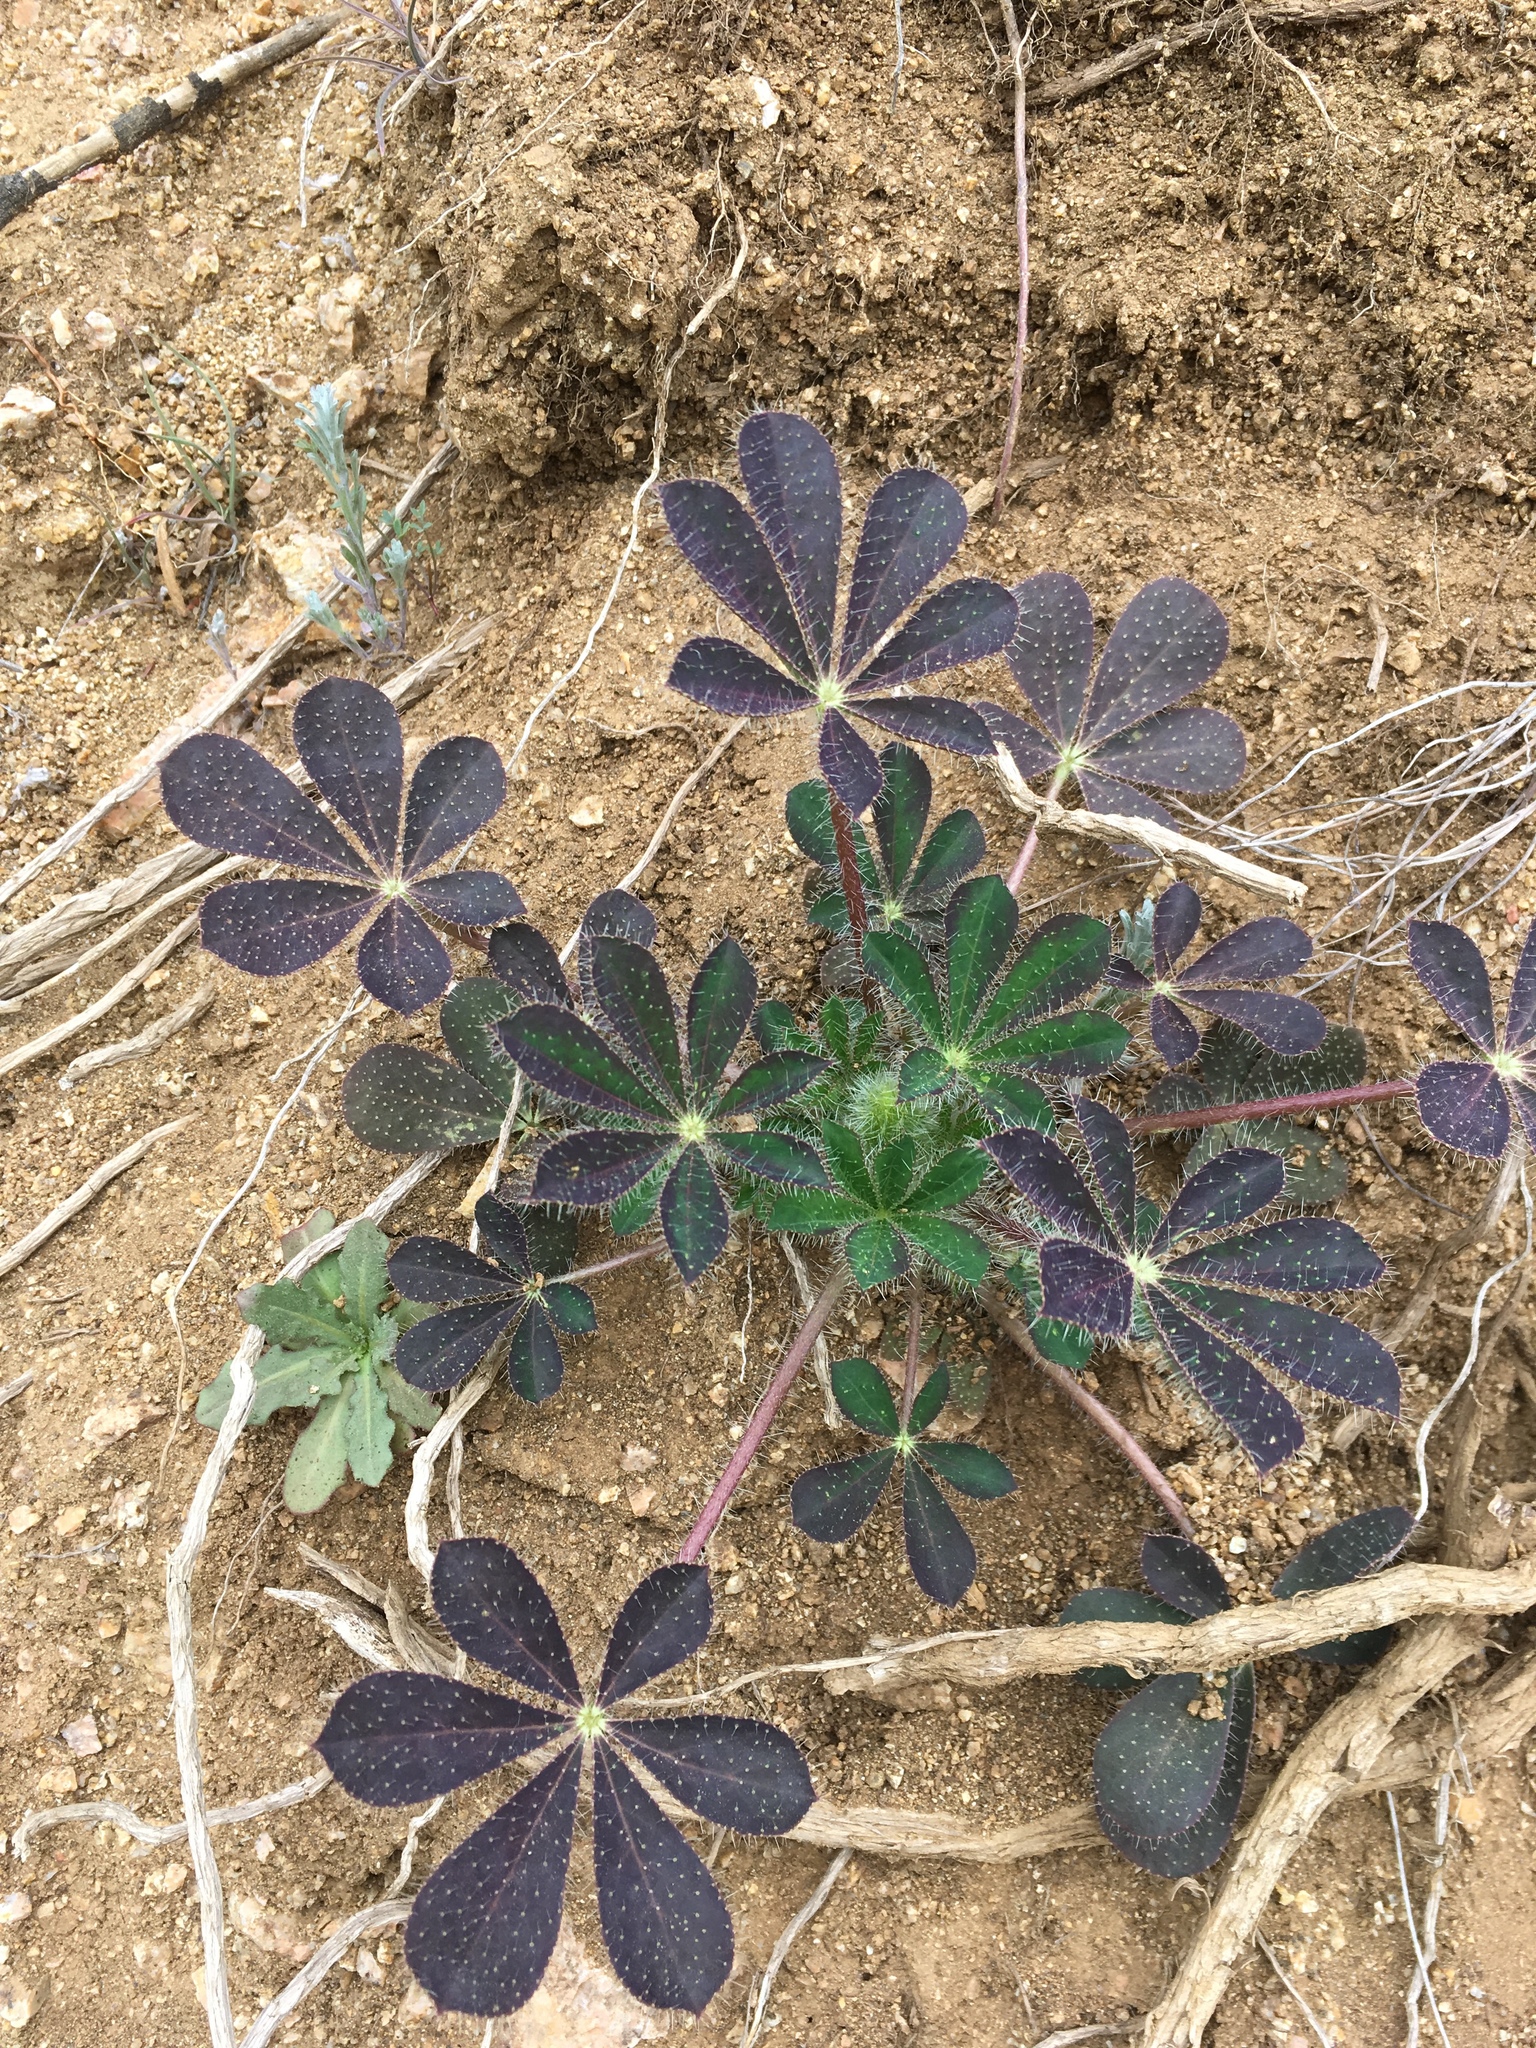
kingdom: Plantae
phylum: Tracheophyta
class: Magnoliopsida
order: Fabales
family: Fabaceae
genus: Lupinus
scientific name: Lupinus hirsutissimus
